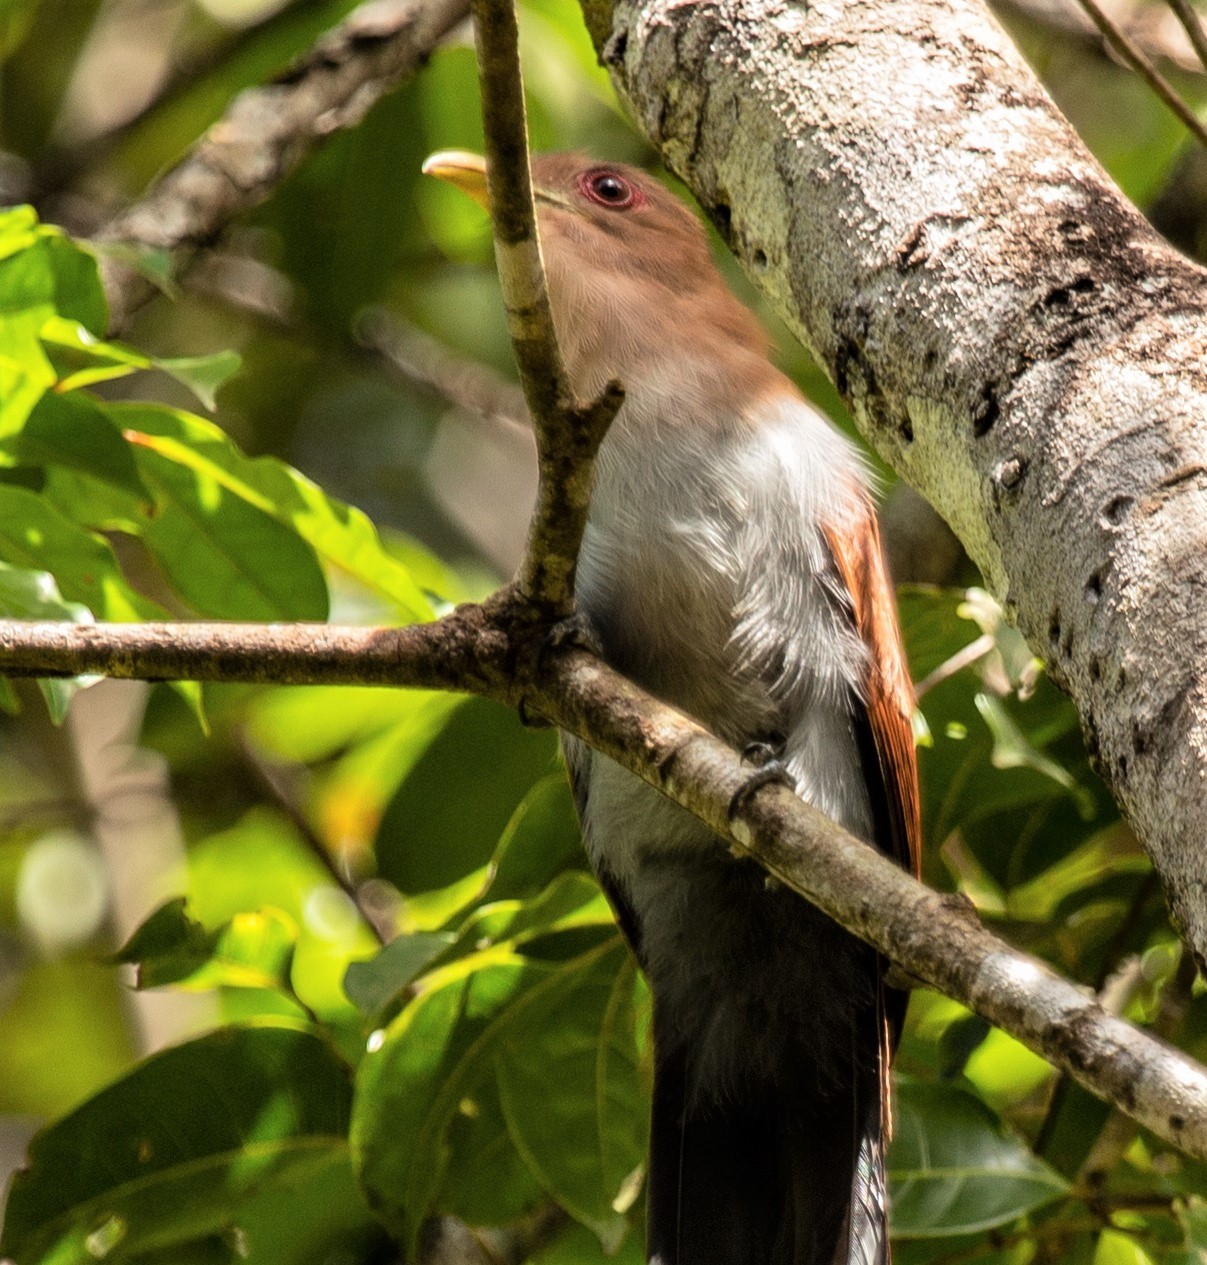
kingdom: Animalia
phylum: Chordata
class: Aves
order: Cuculiformes
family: Cuculidae
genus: Piaya
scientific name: Piaya cayana
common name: Squirrel cuckoo
